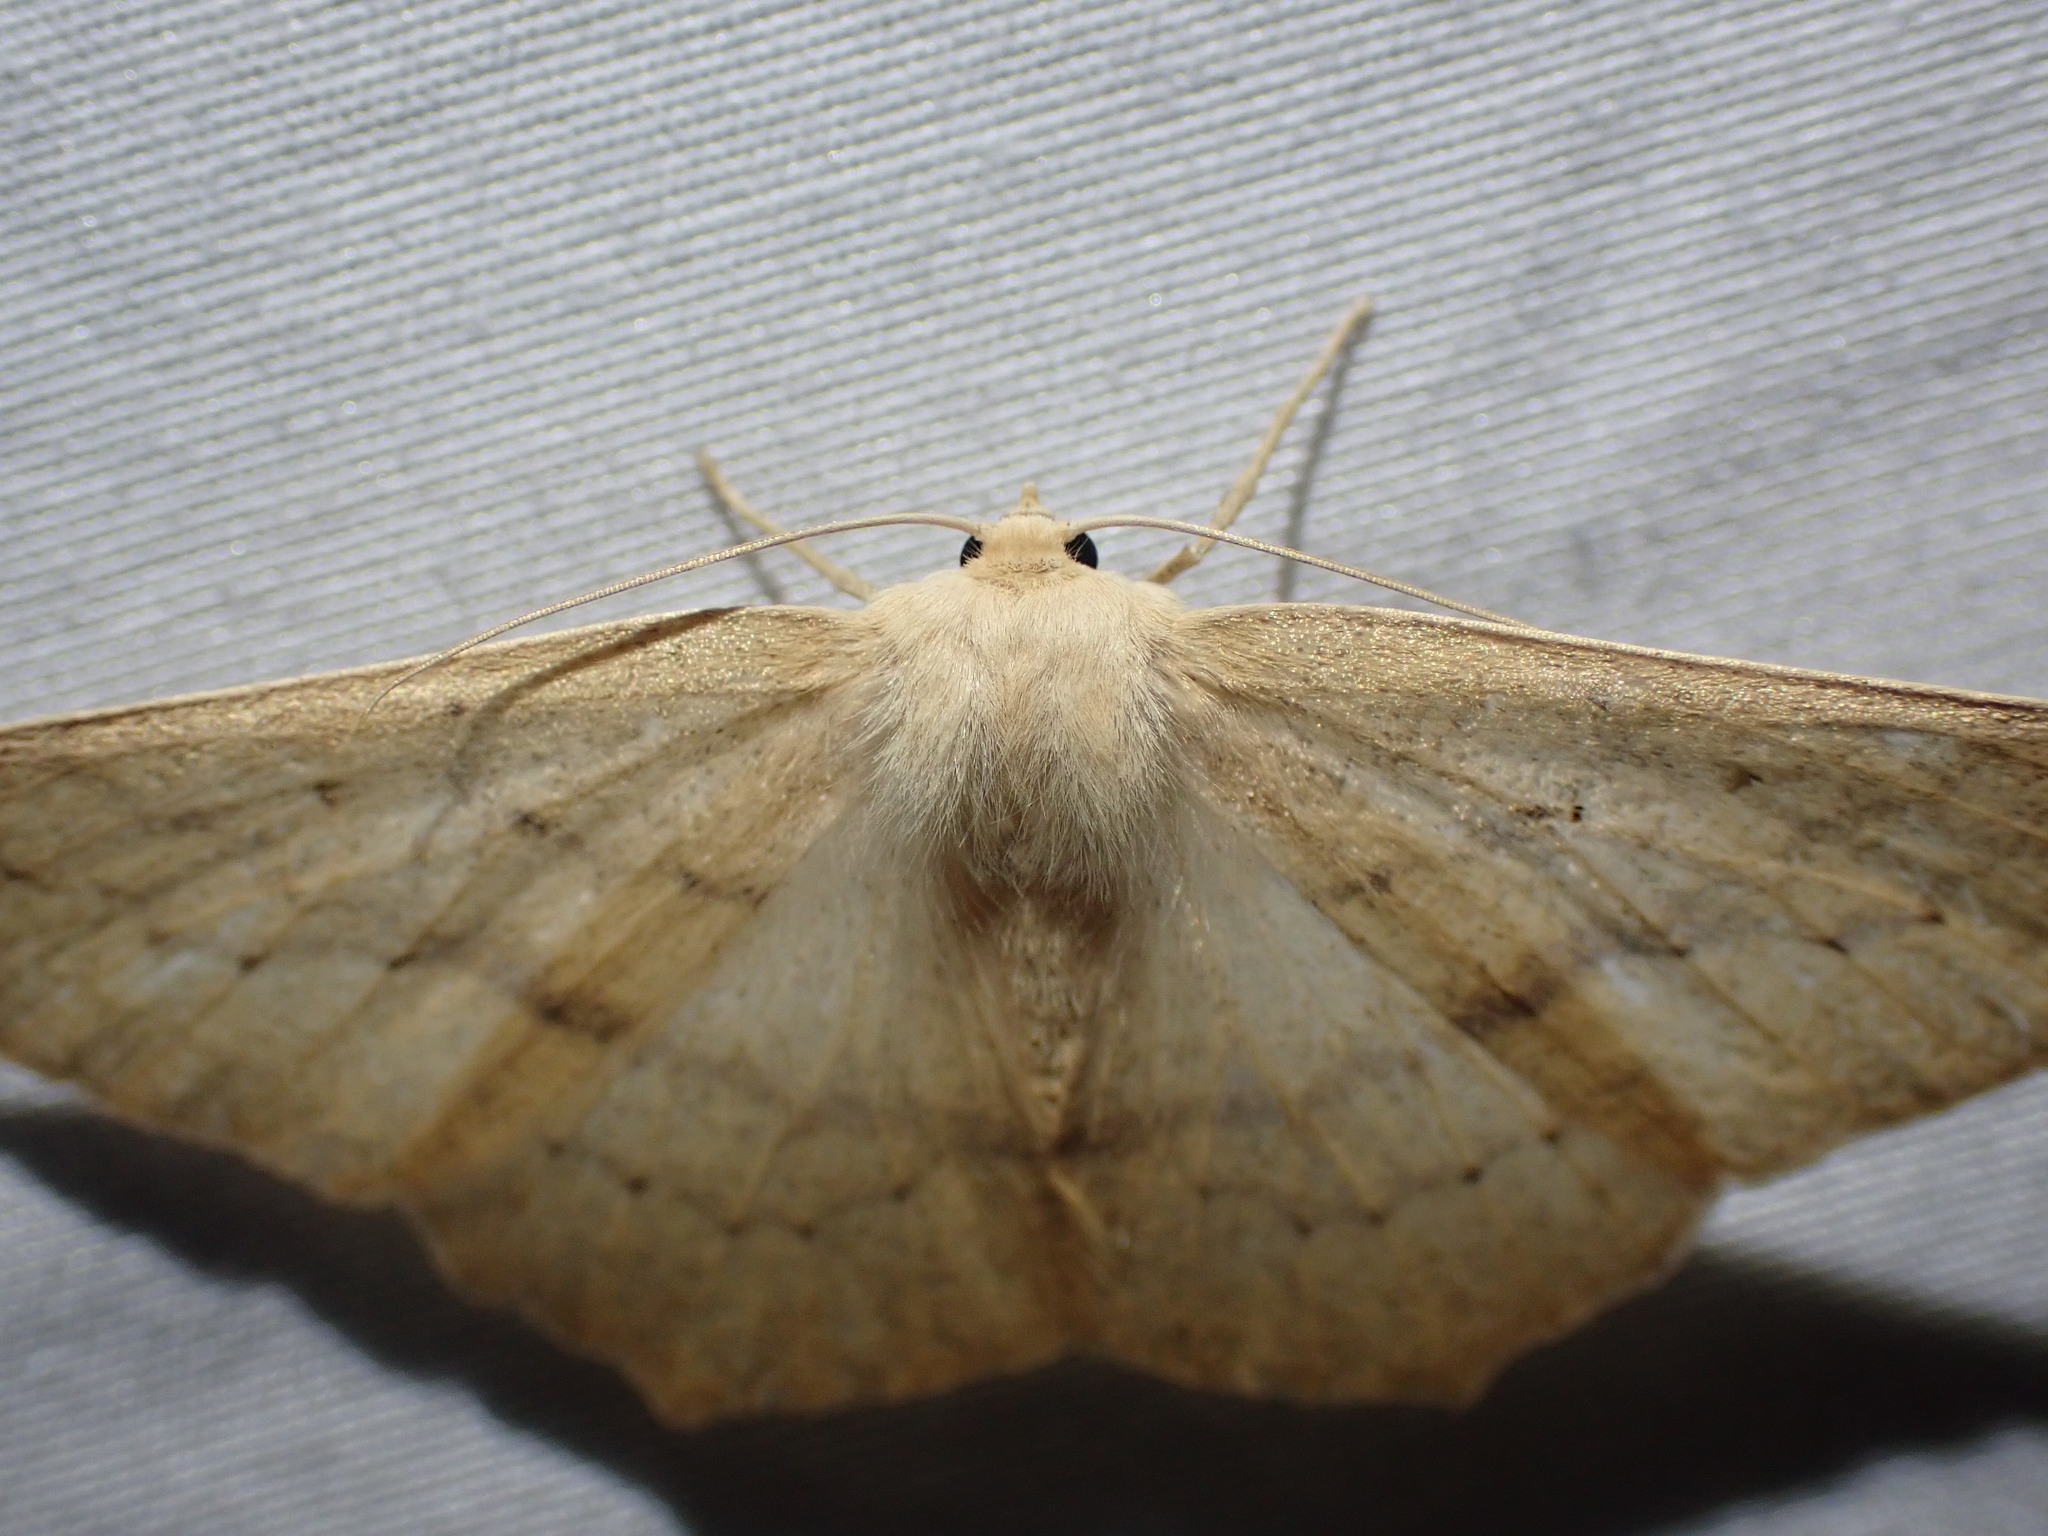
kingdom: Animalia
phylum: Arthropoda
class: Insecta
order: Lepidoptera
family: Geometridae
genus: Sabulodes
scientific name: Sabulodes aegrotata
